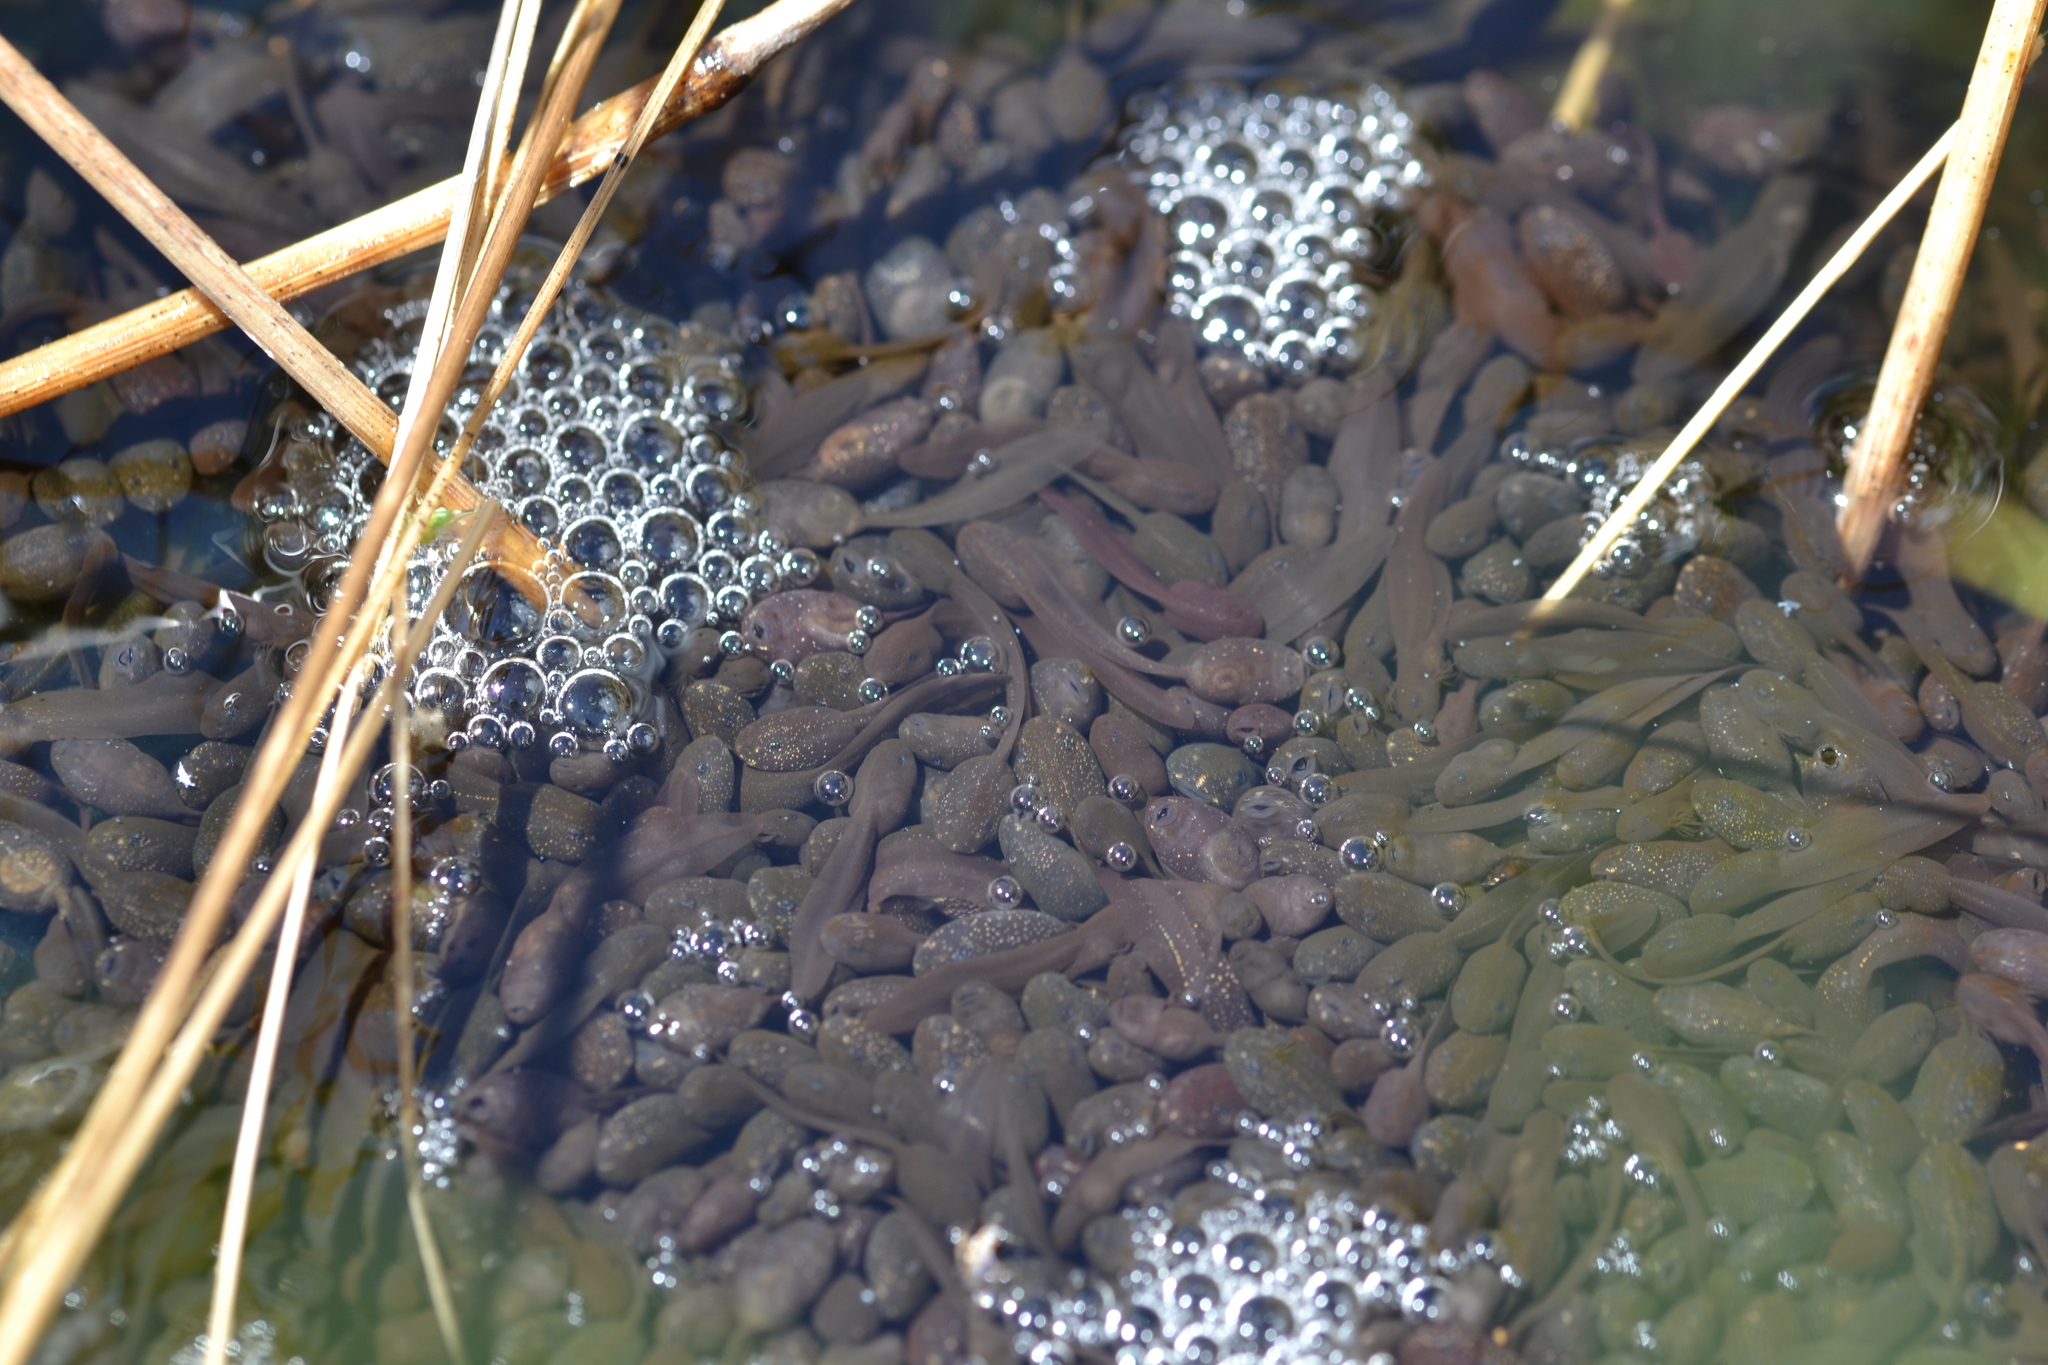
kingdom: Animalia
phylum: Chordata
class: Amphibia
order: Anura
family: Ranidae
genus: Rana
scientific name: Rana temporaria
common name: Common frog
